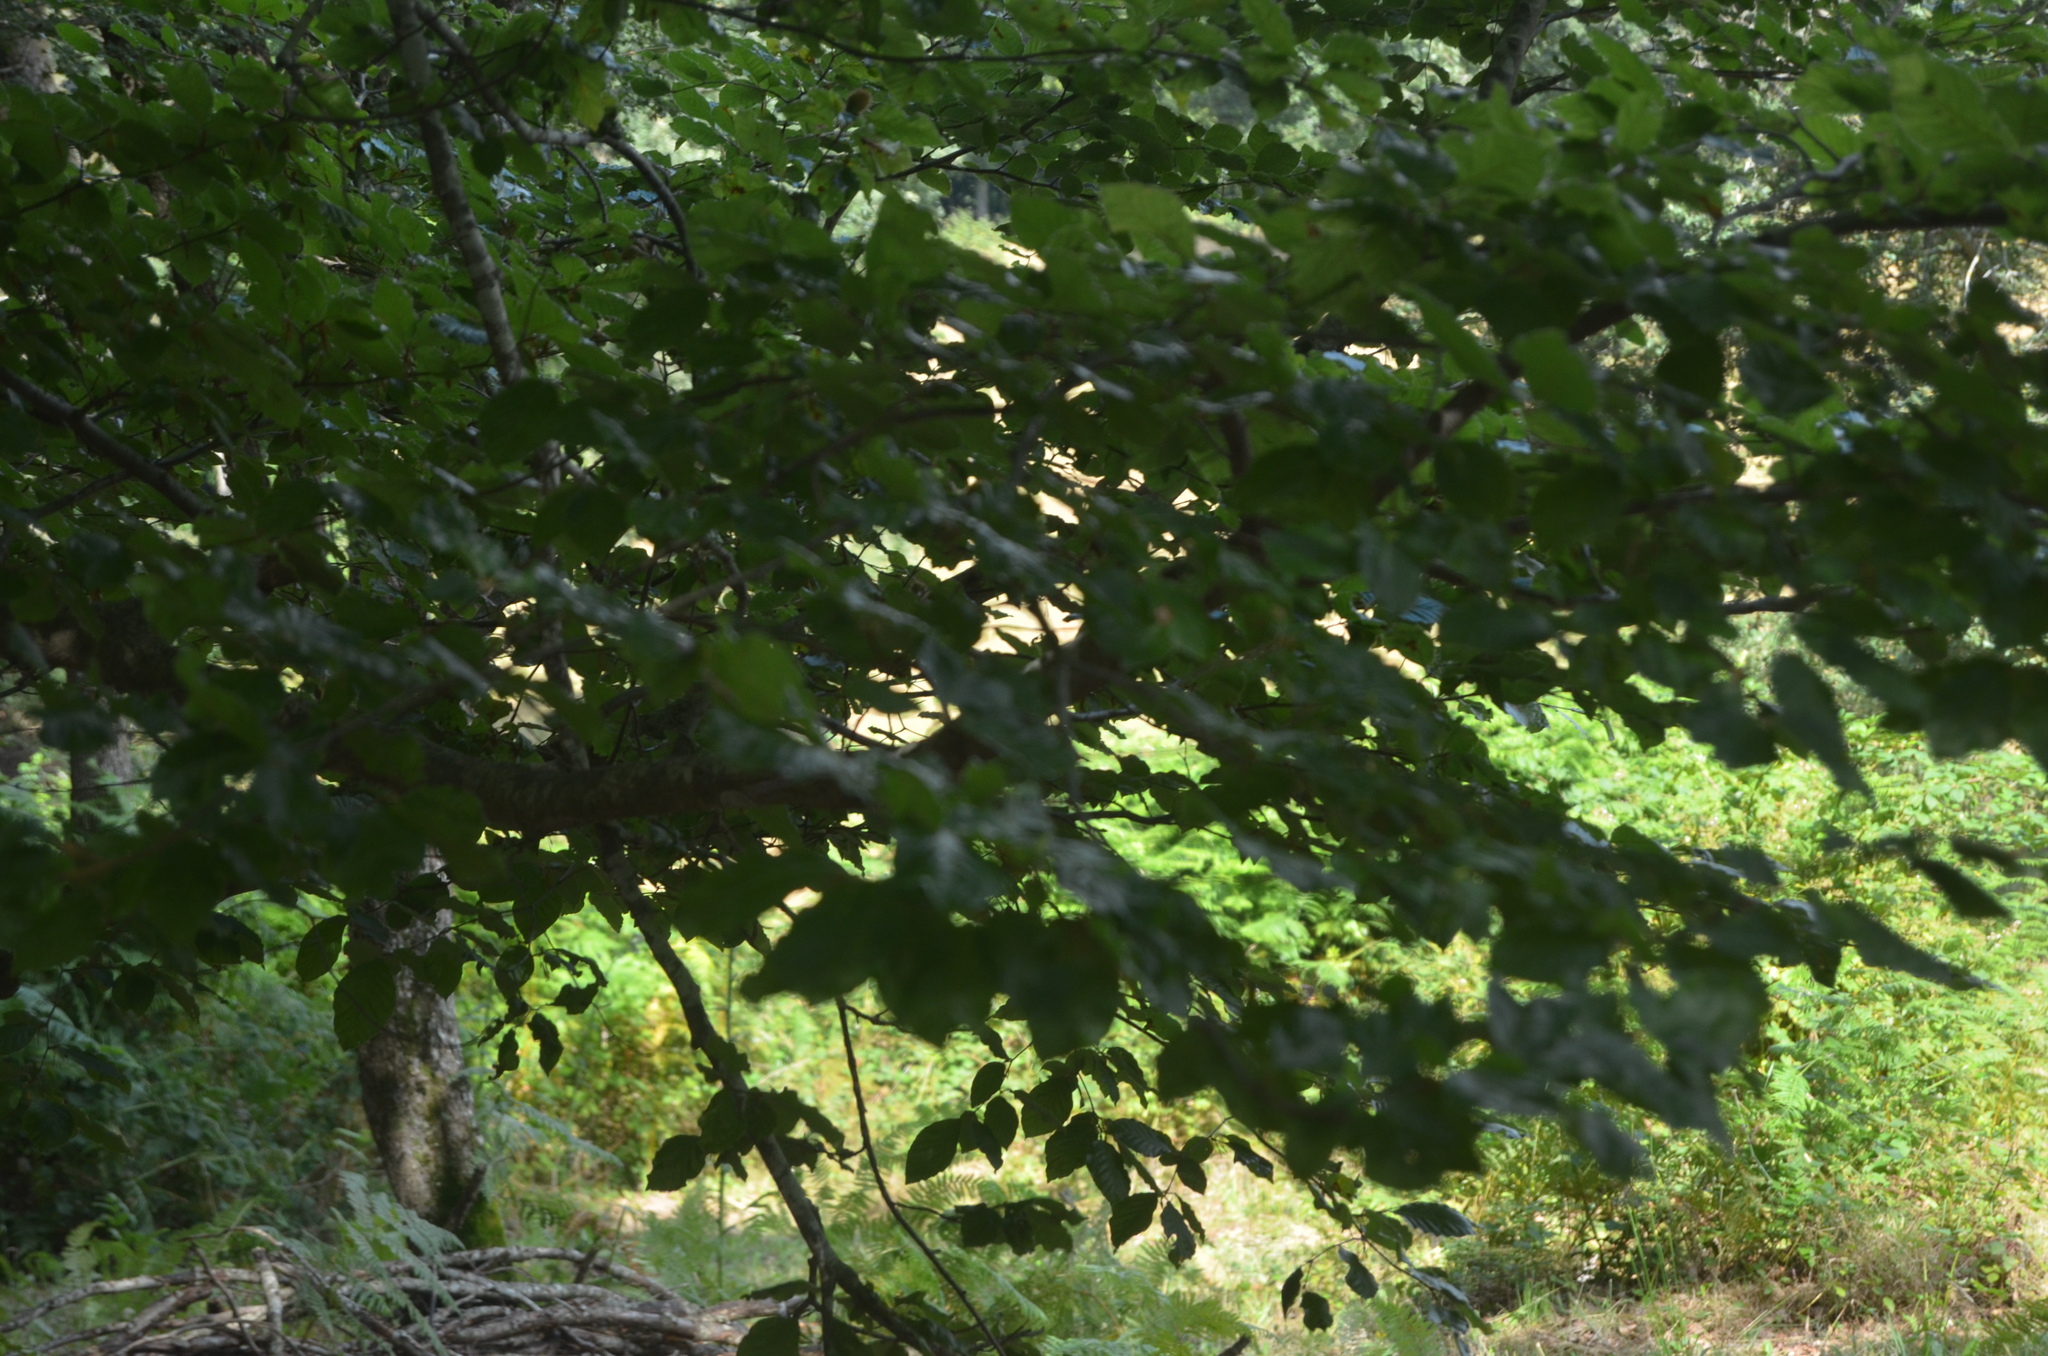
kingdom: Plantae
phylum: Tracheophyta
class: Magnoliopsida
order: Fagales
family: Fagaceae
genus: Fagus
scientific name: Fagus sylvatica
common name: Beech
